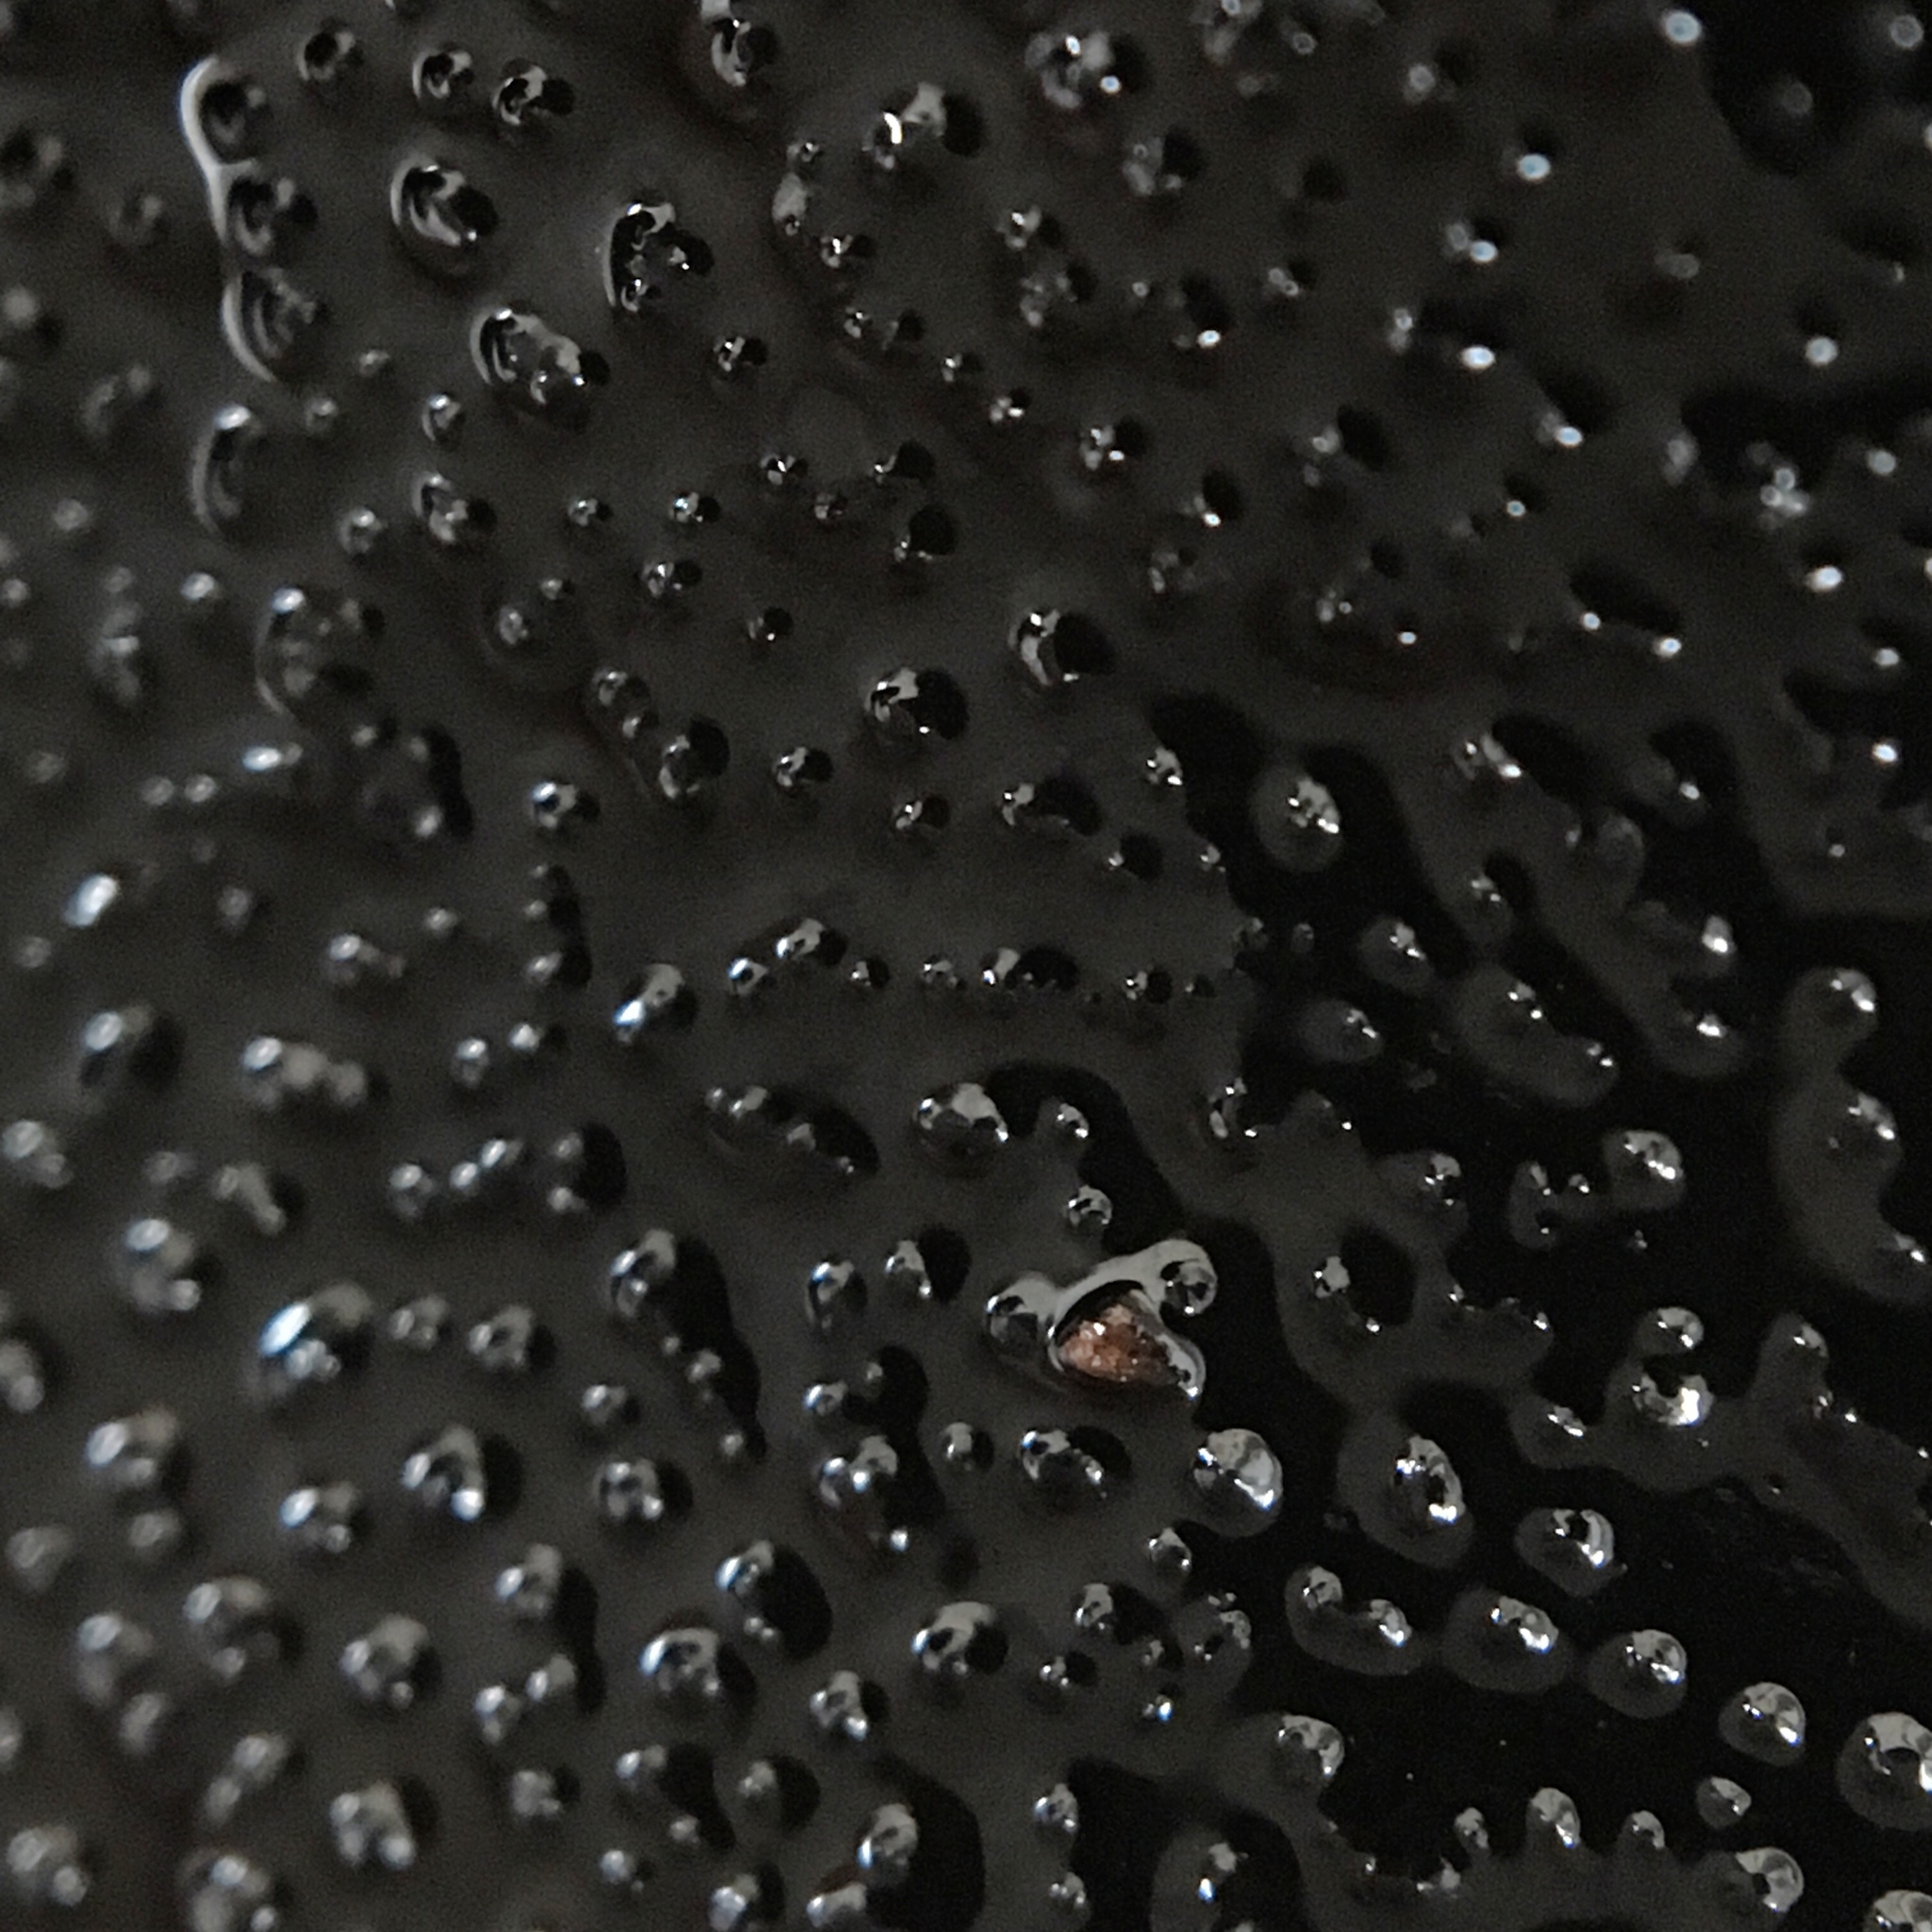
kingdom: Fungi
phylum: Ascomycota
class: Sordariomycetes
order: Boliniales
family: Boliniaceae
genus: Camarops
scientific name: Camarops petersii
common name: Dog's nose fungus
